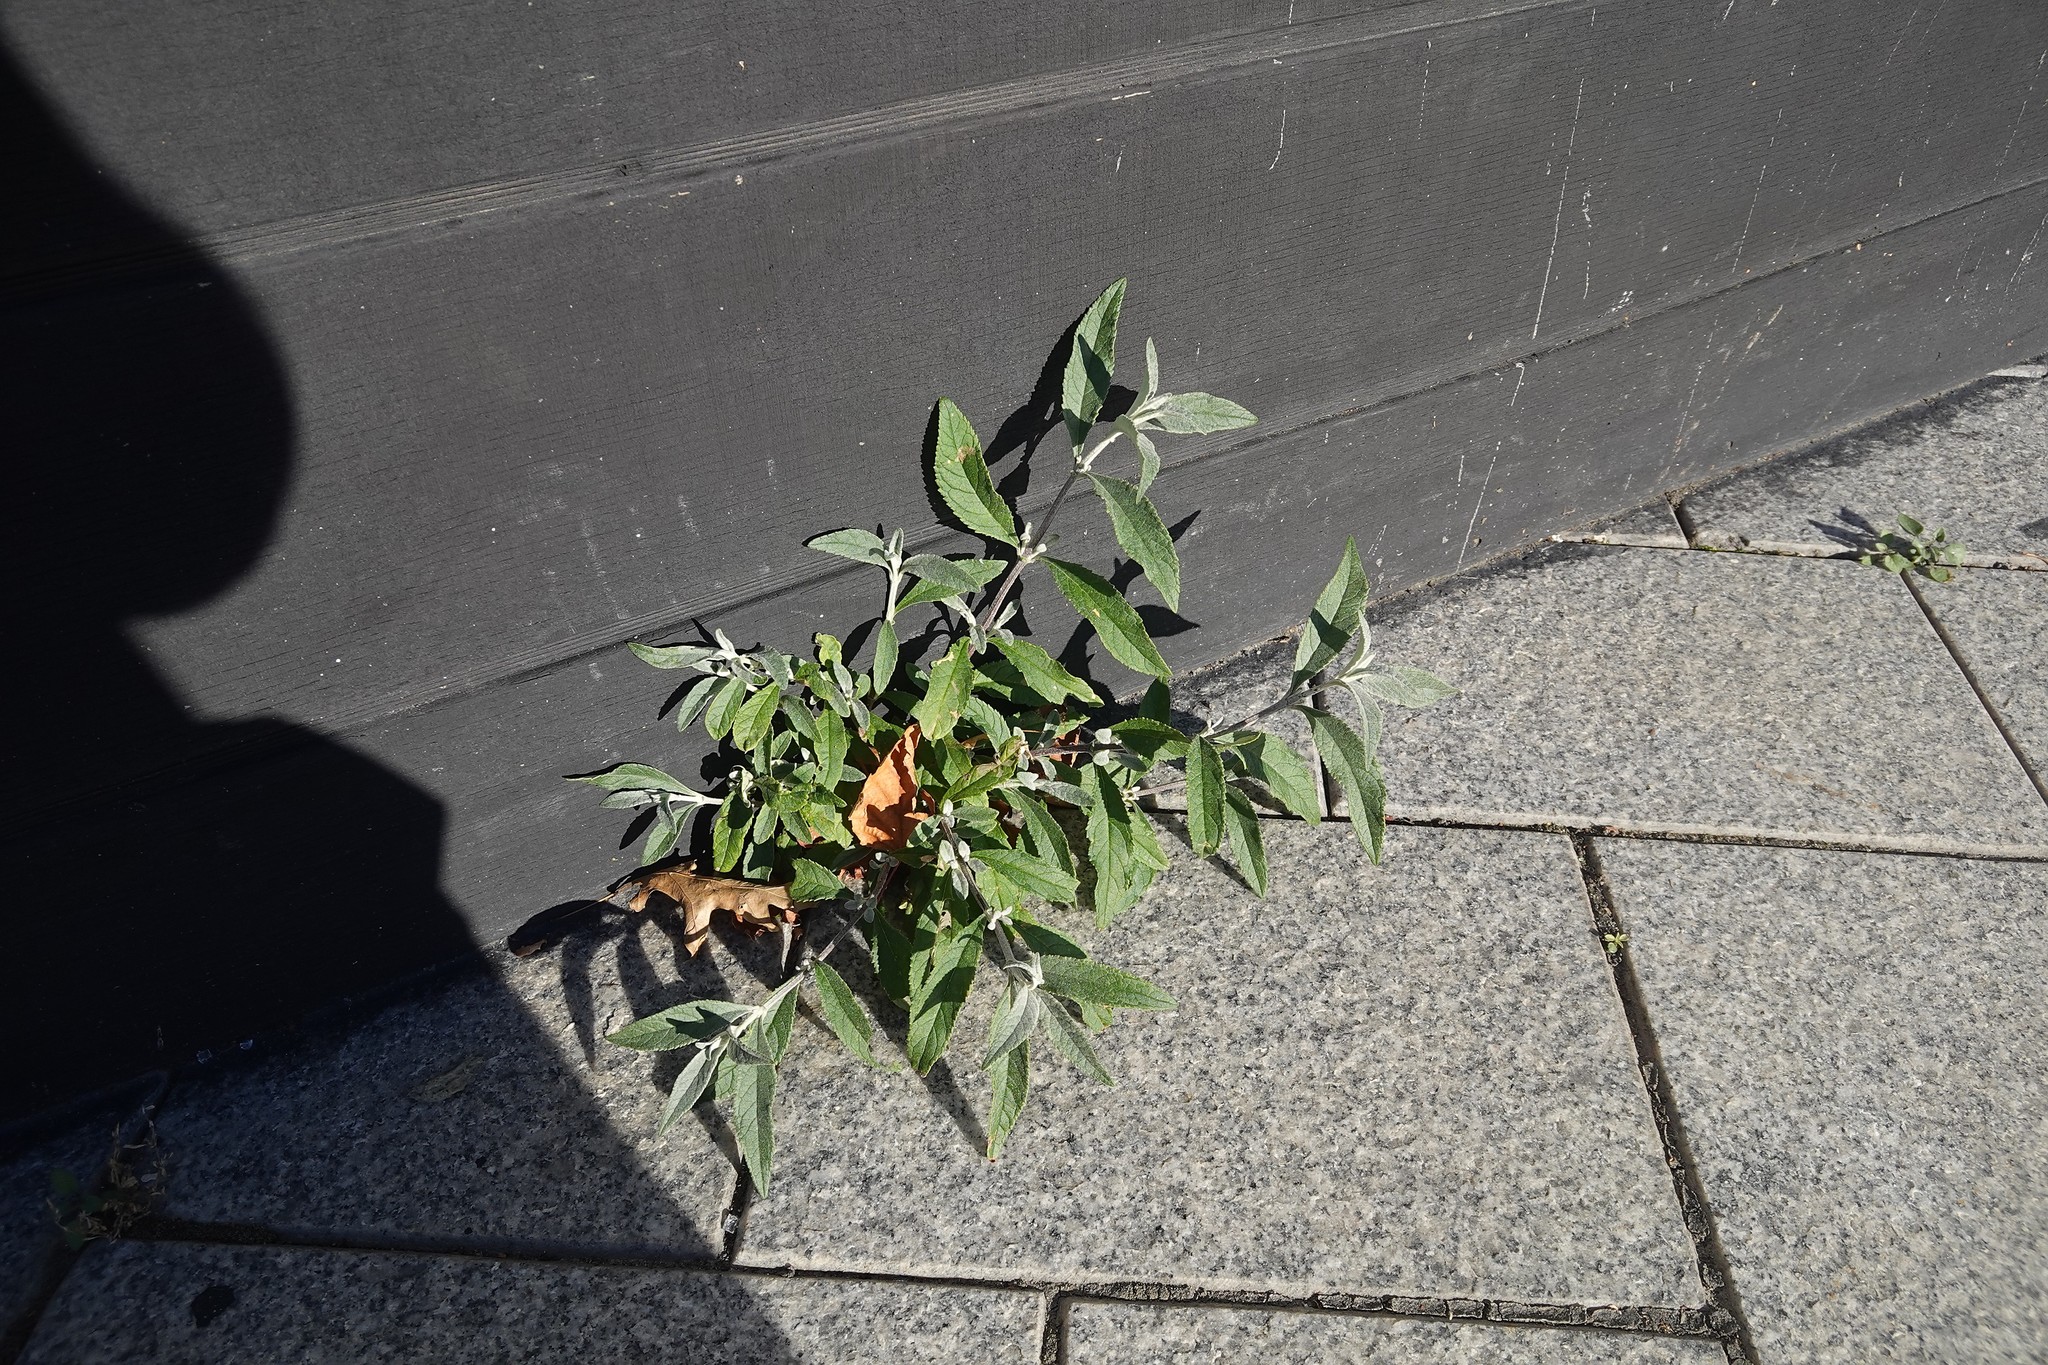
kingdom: Plantae
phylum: Tracheophyta
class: Magnoliopsida
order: Lamiales
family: Scrophulariaceae
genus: Buddleja
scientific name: Buddleja davidii
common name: Butterfly-bush
